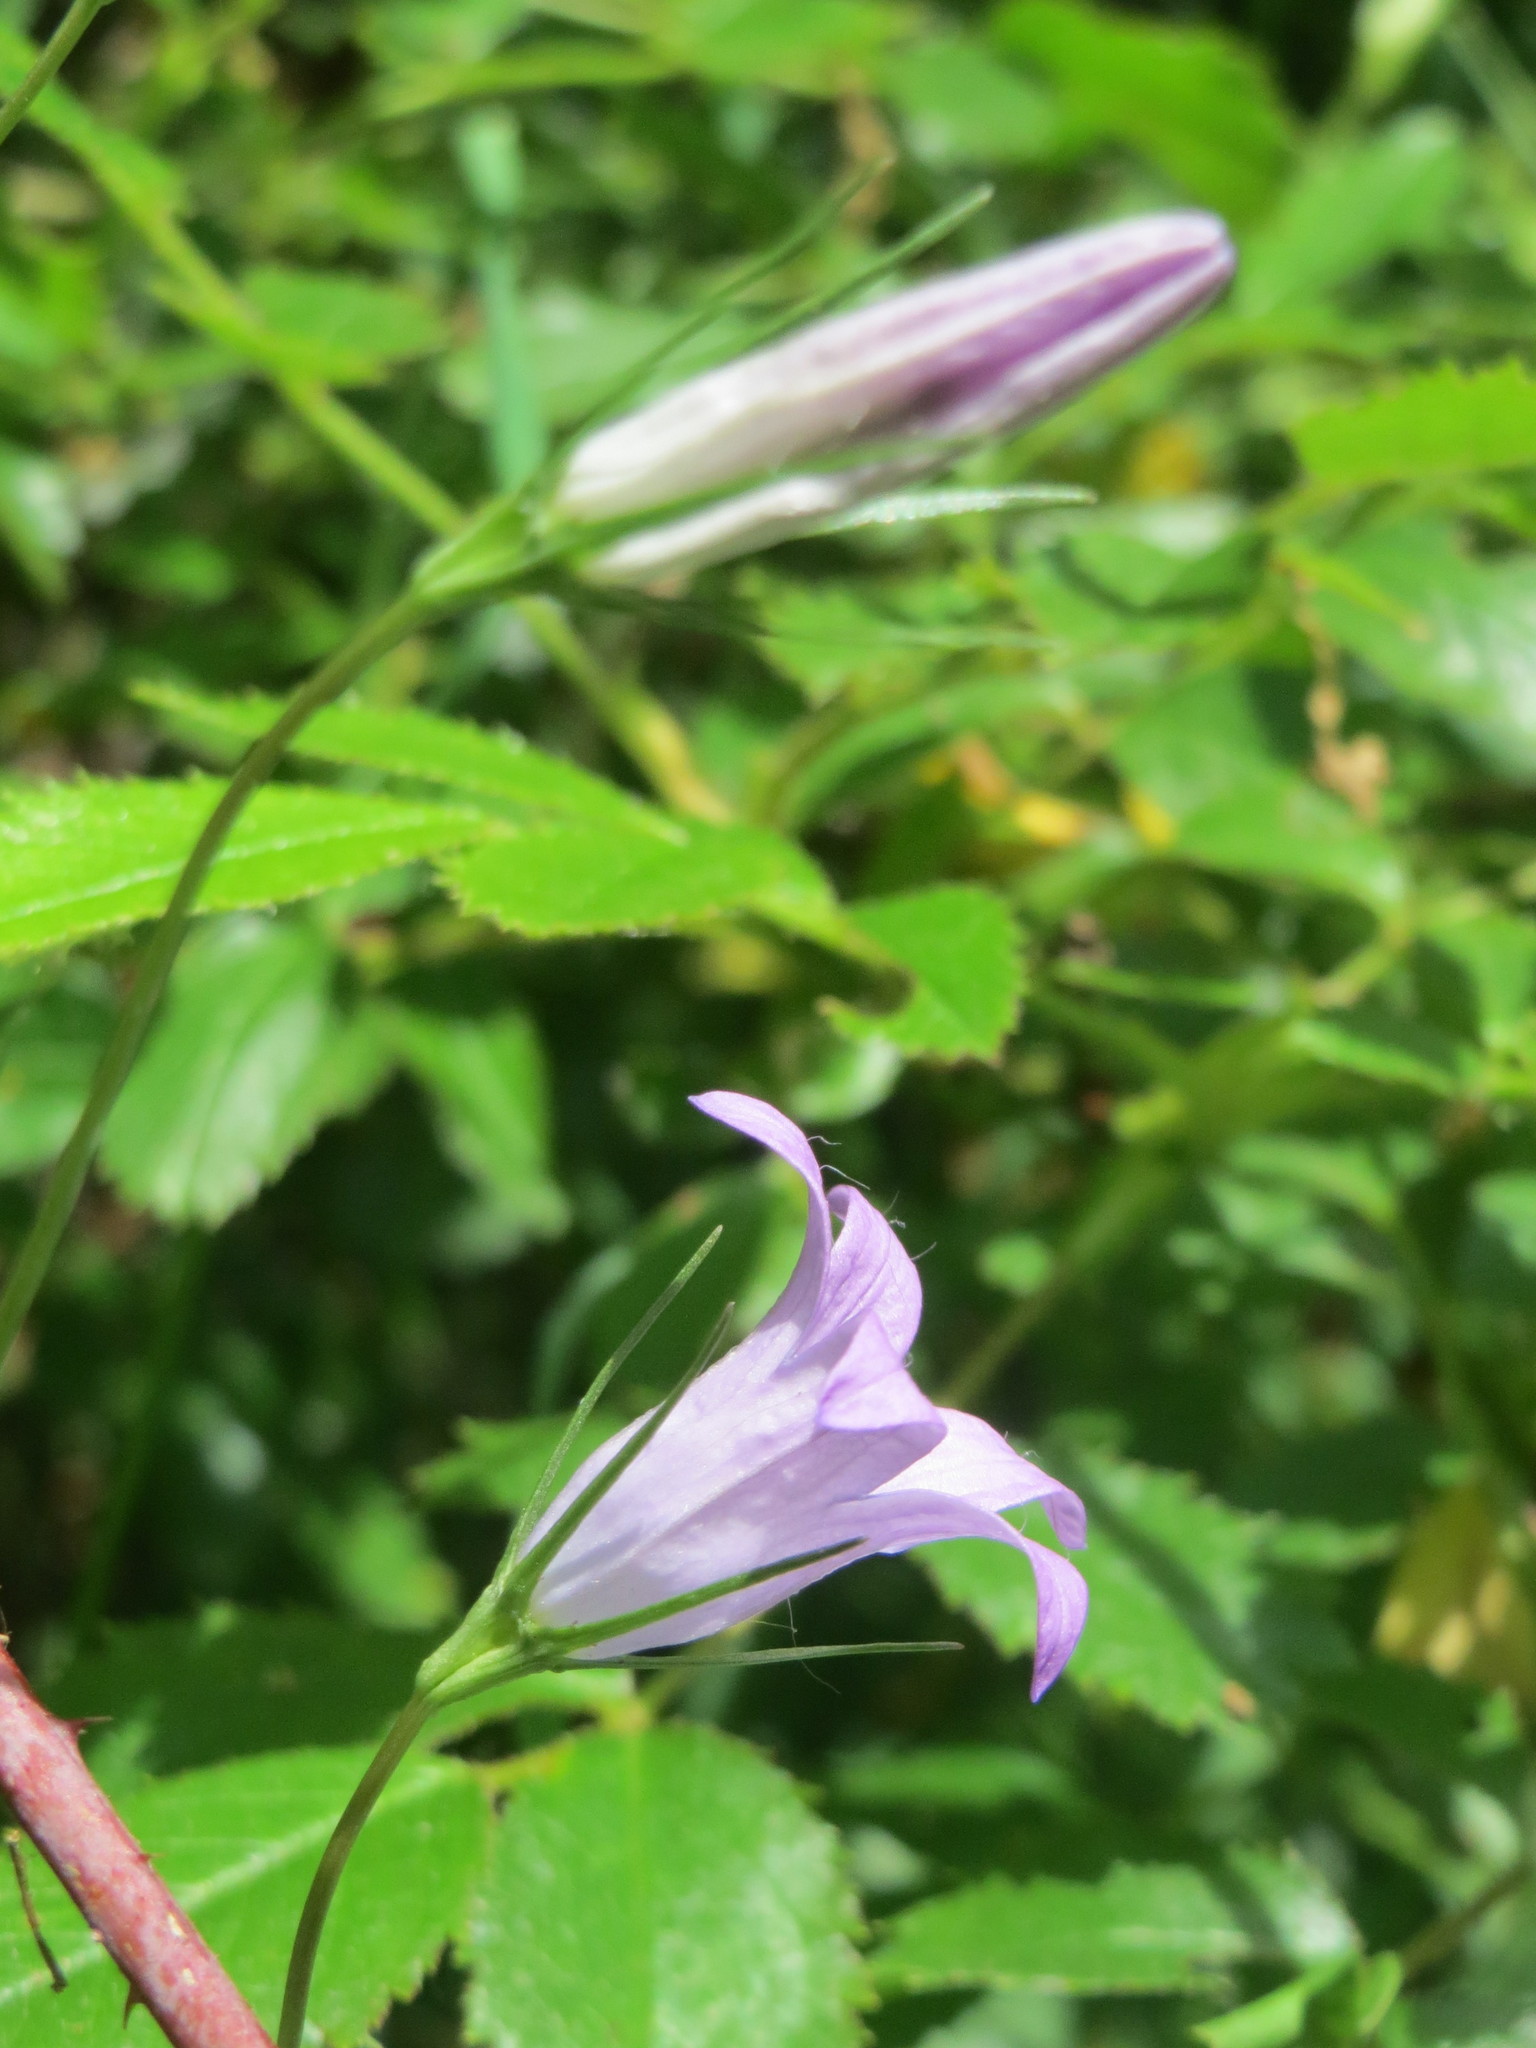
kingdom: Plantae
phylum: Tracheophyta
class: Magnoliopsida
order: Asterales
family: Campanulaceae
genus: Campanula
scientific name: Campanula rapunculus
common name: Rampion bellflower
